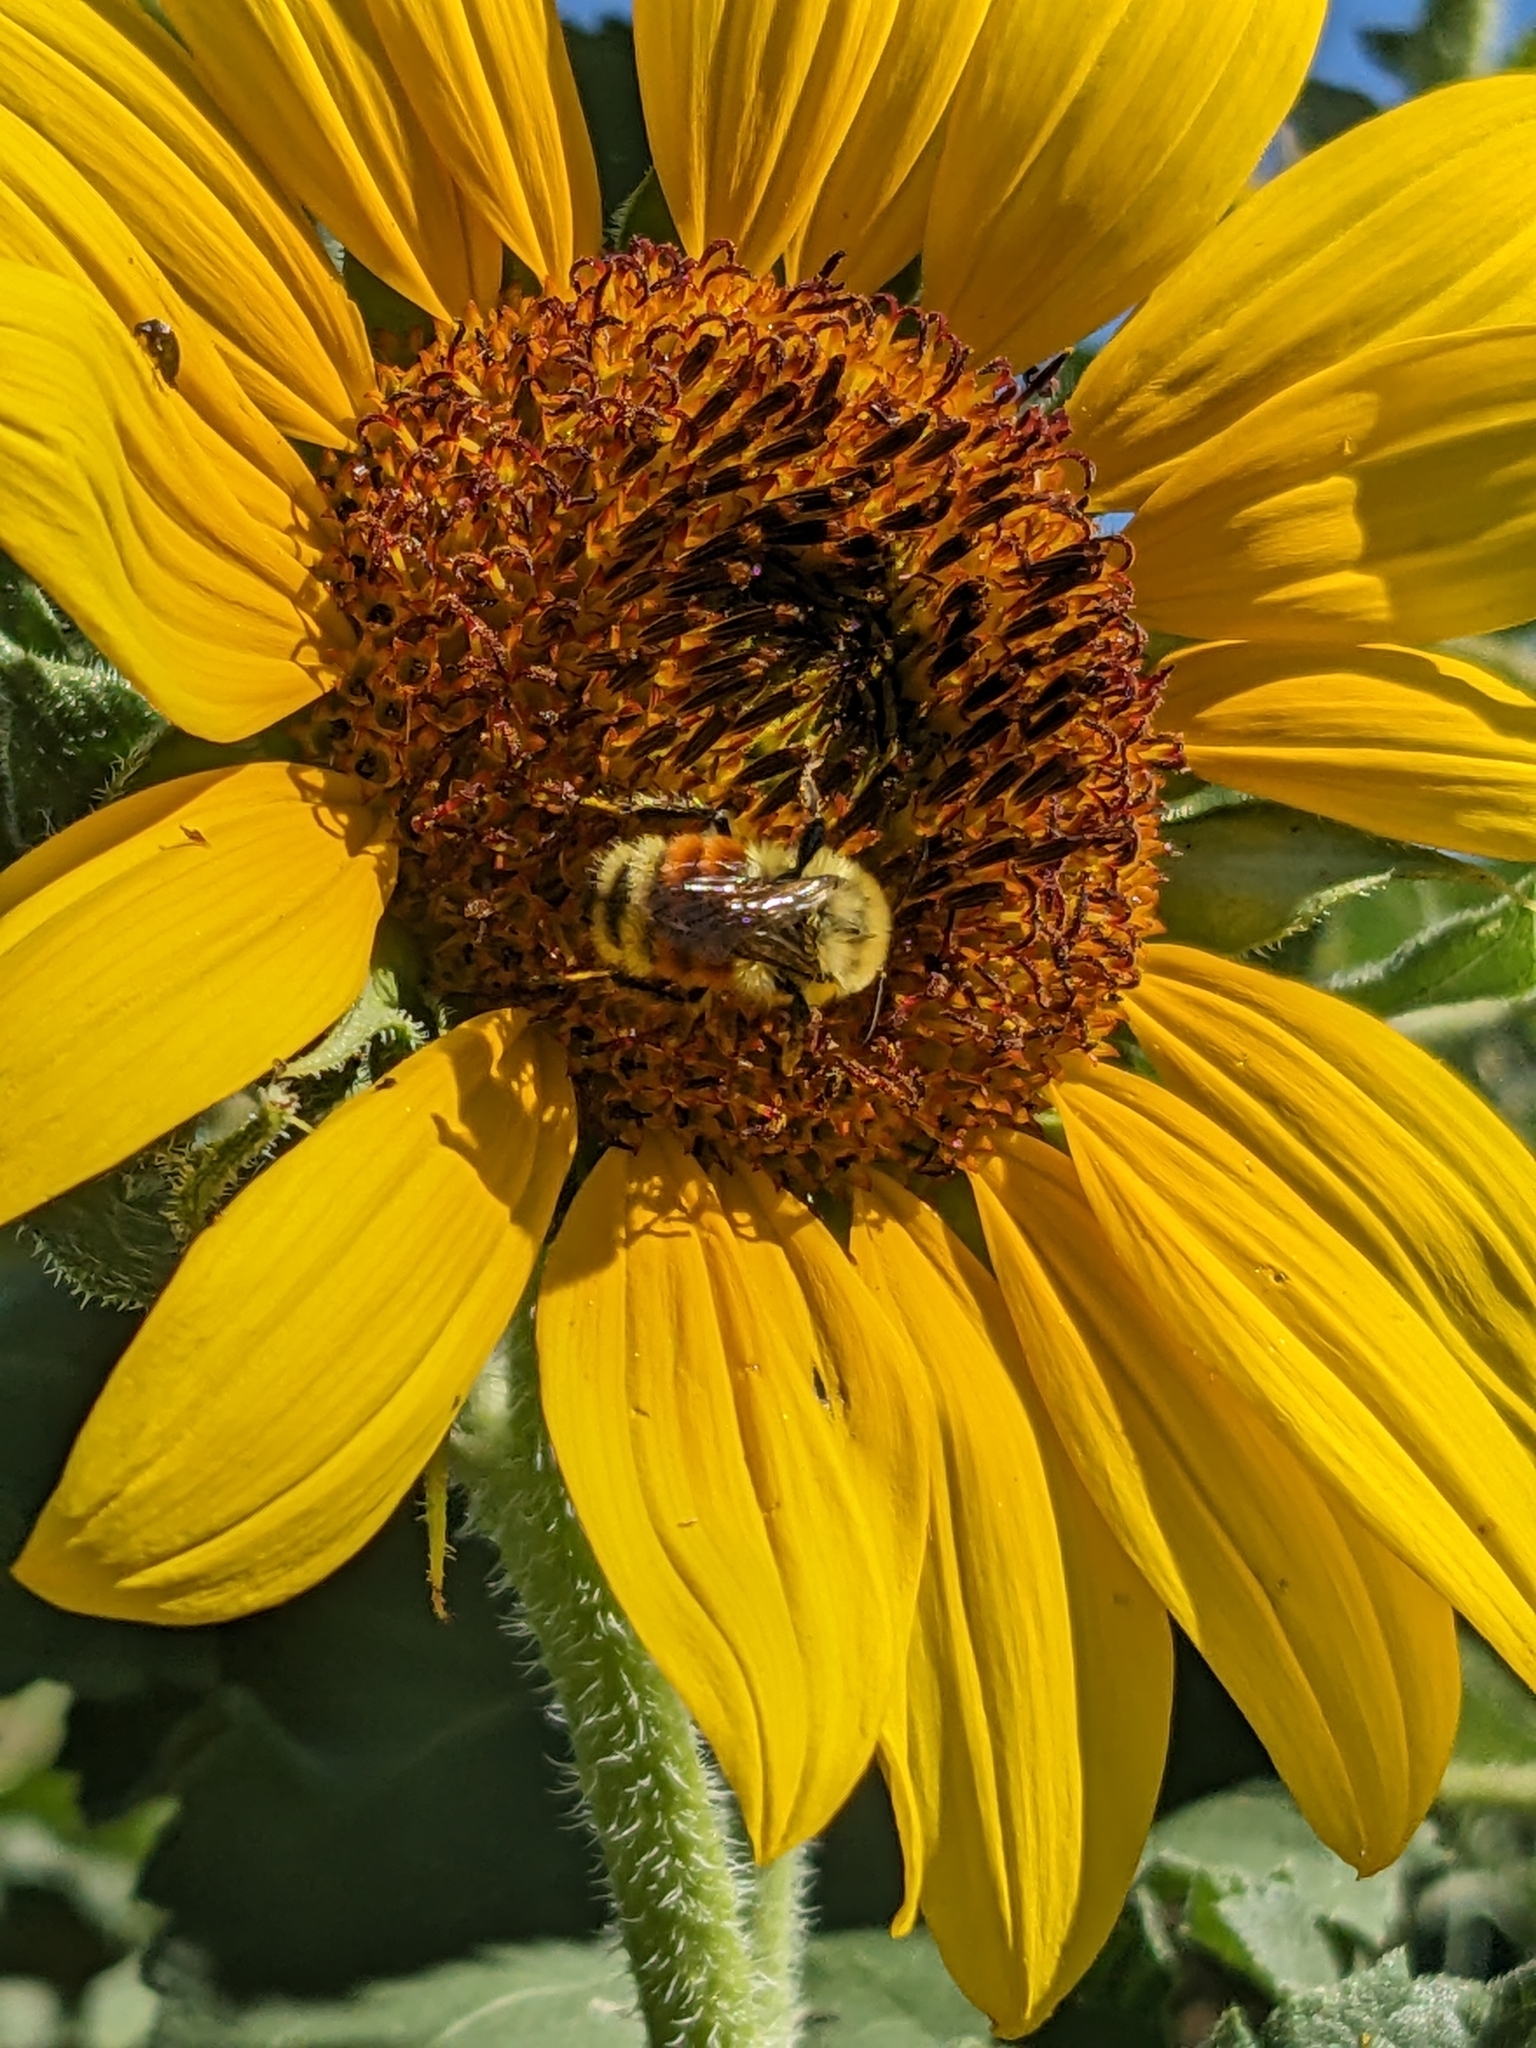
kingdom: Animalia
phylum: Arthropoda
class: Insecta
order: Hymenoptera
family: Apidae
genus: Bombus
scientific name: Bombus huntii
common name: Hunt bumble bee
